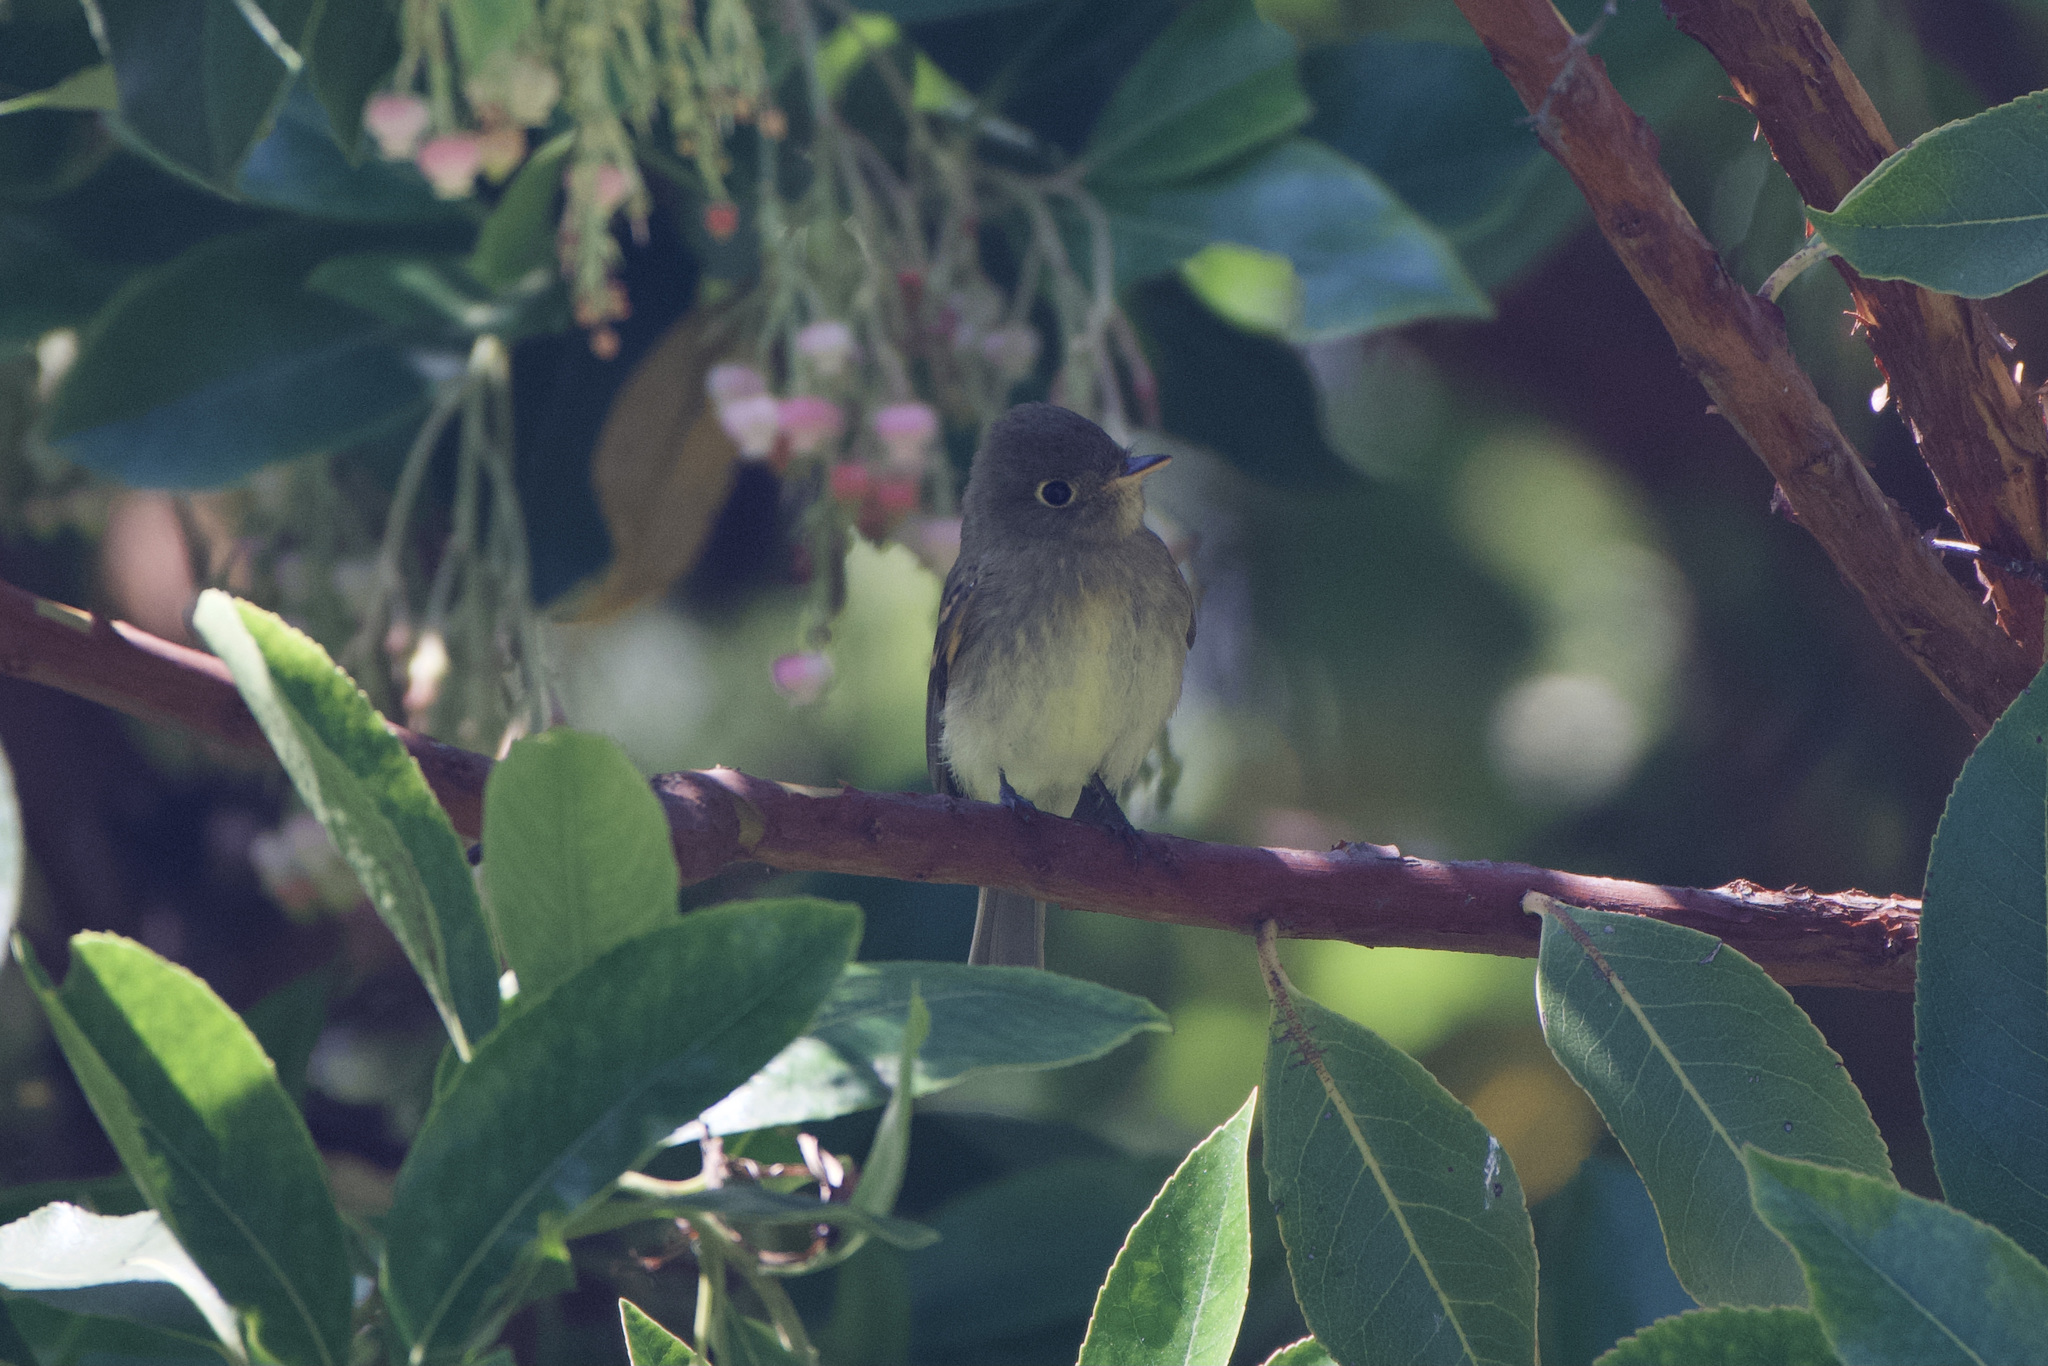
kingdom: Animalia
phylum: Chordata
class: Aves
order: Passeriformes
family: Tyrannidae
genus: Empidonax
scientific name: Empidonax difficilis
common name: Pacific-slope flycatcher
